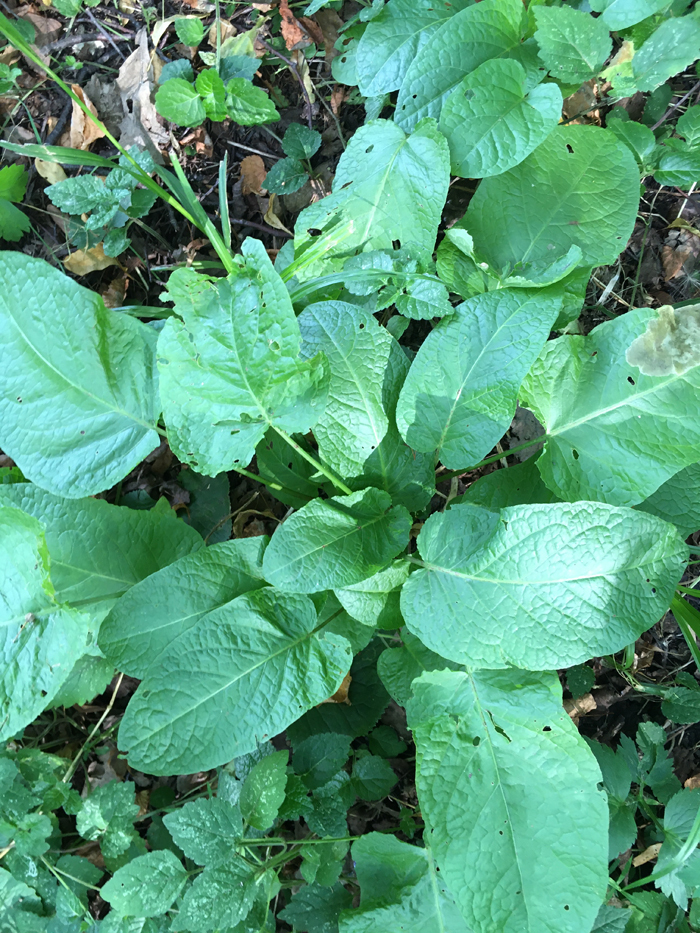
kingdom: Plantae
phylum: Tracheophyta
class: Magnoliopsida
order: Caryophyllales
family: Polygonaceae
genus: Rumex
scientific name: Rumex obtusifolius
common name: Bitter dock
